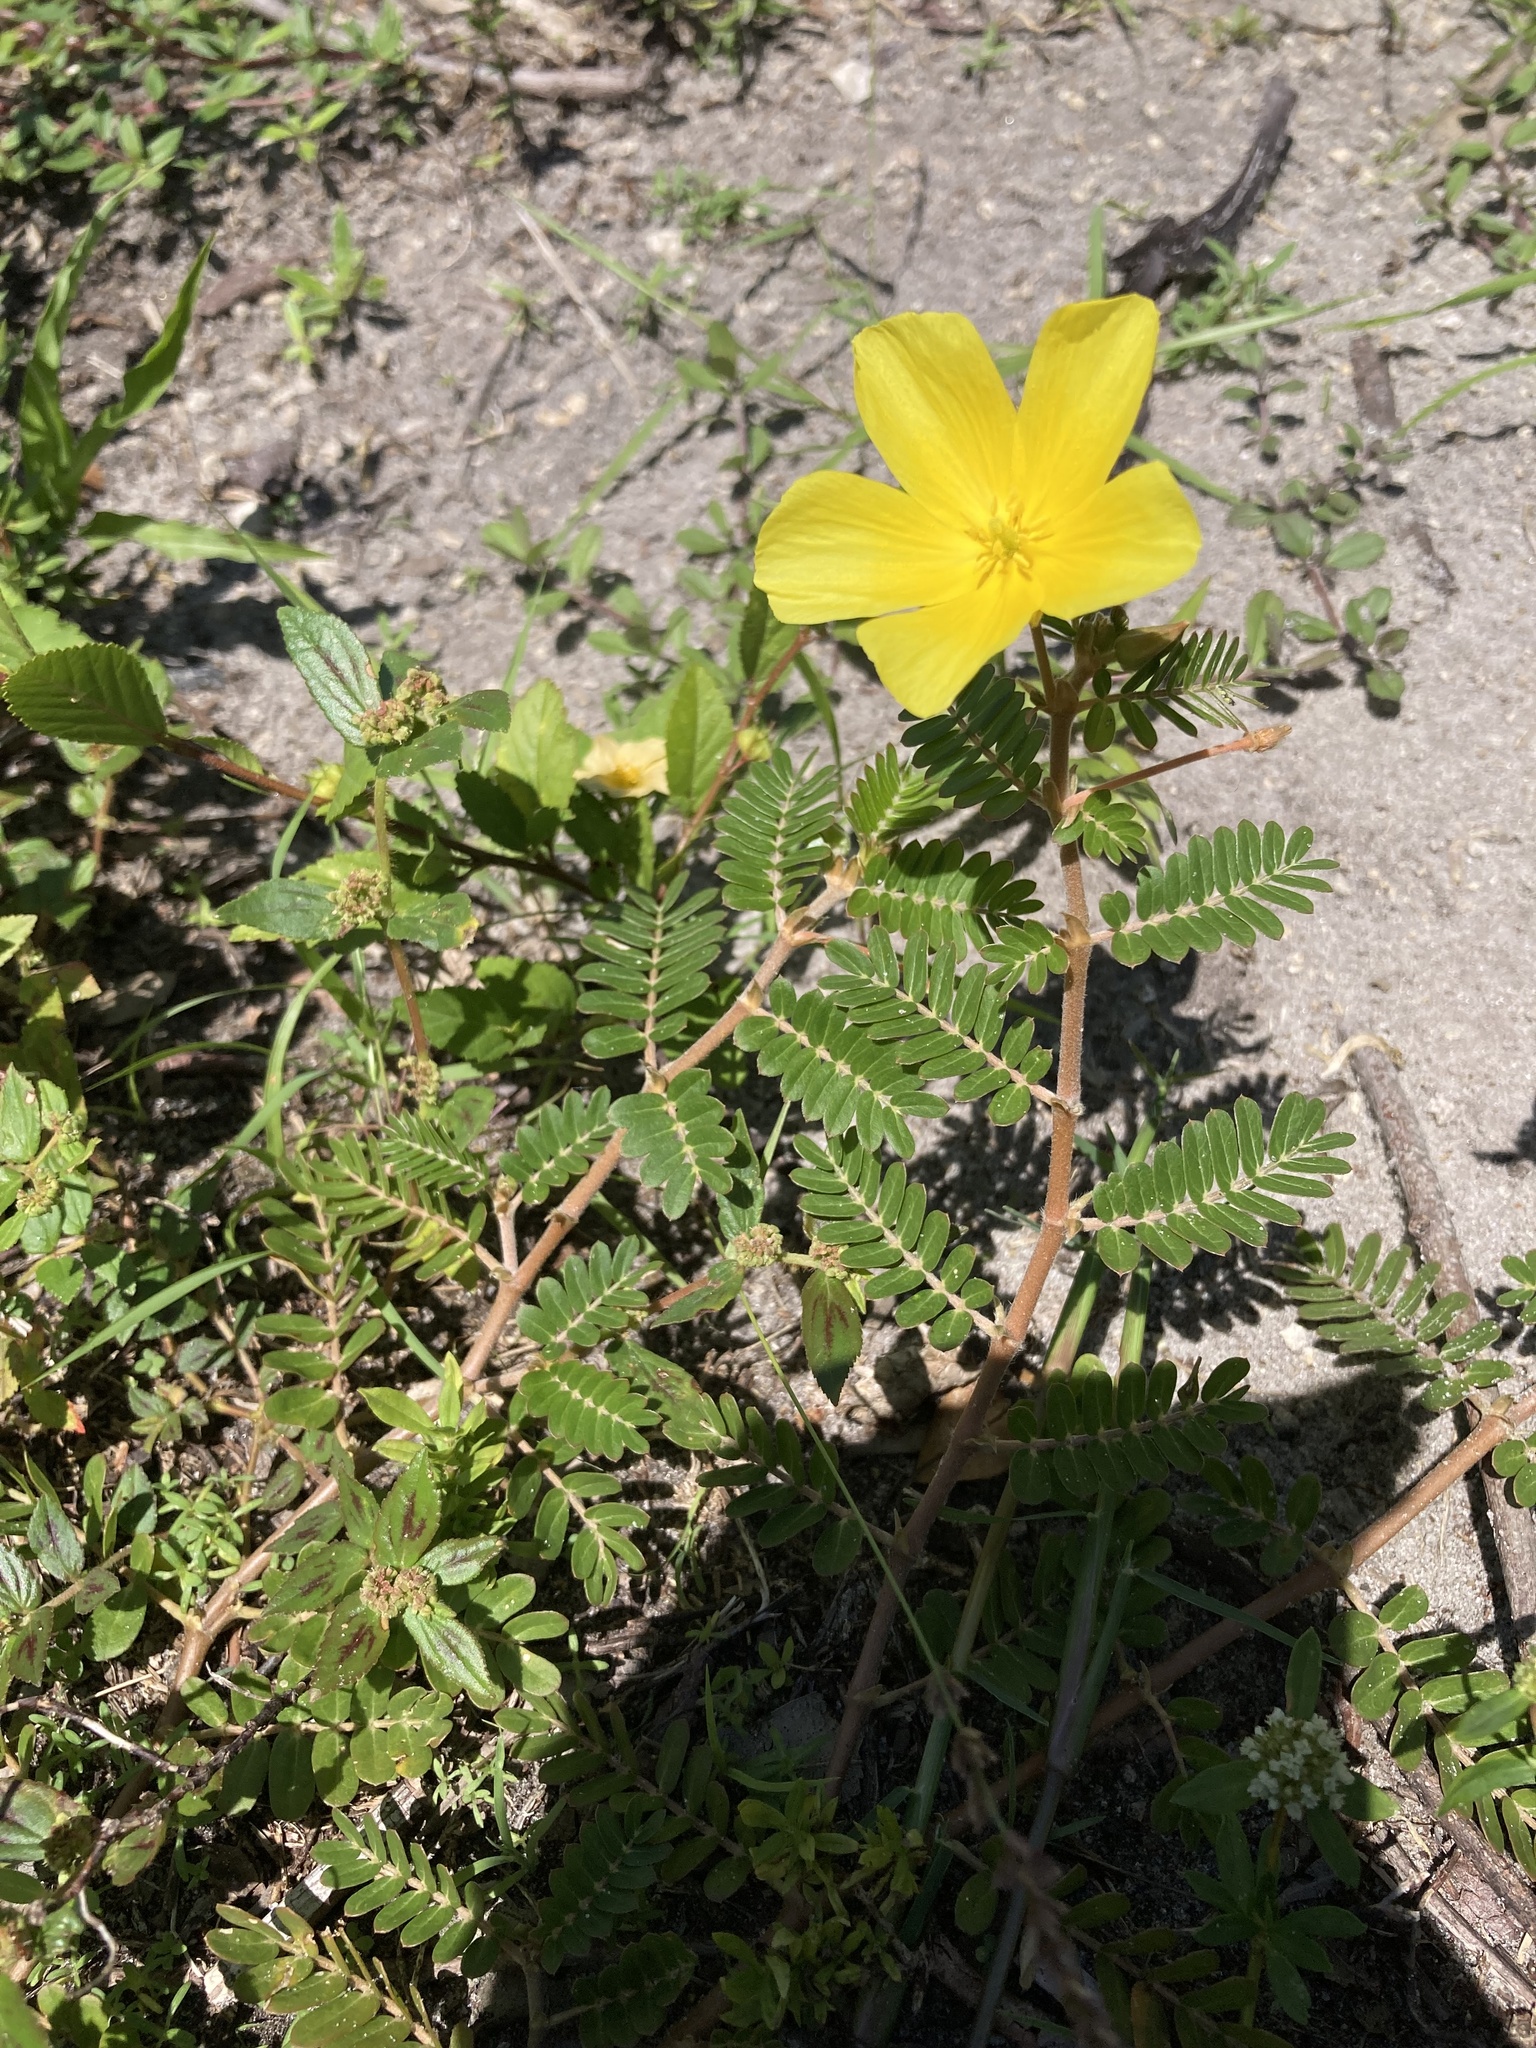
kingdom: Plantae
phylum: Tracheophyta
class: Magnoliopsida
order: Zygophyllales
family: Zygophyllaceae
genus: Tribulus
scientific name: Tribulus cistoides
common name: Jamaican feverplant
